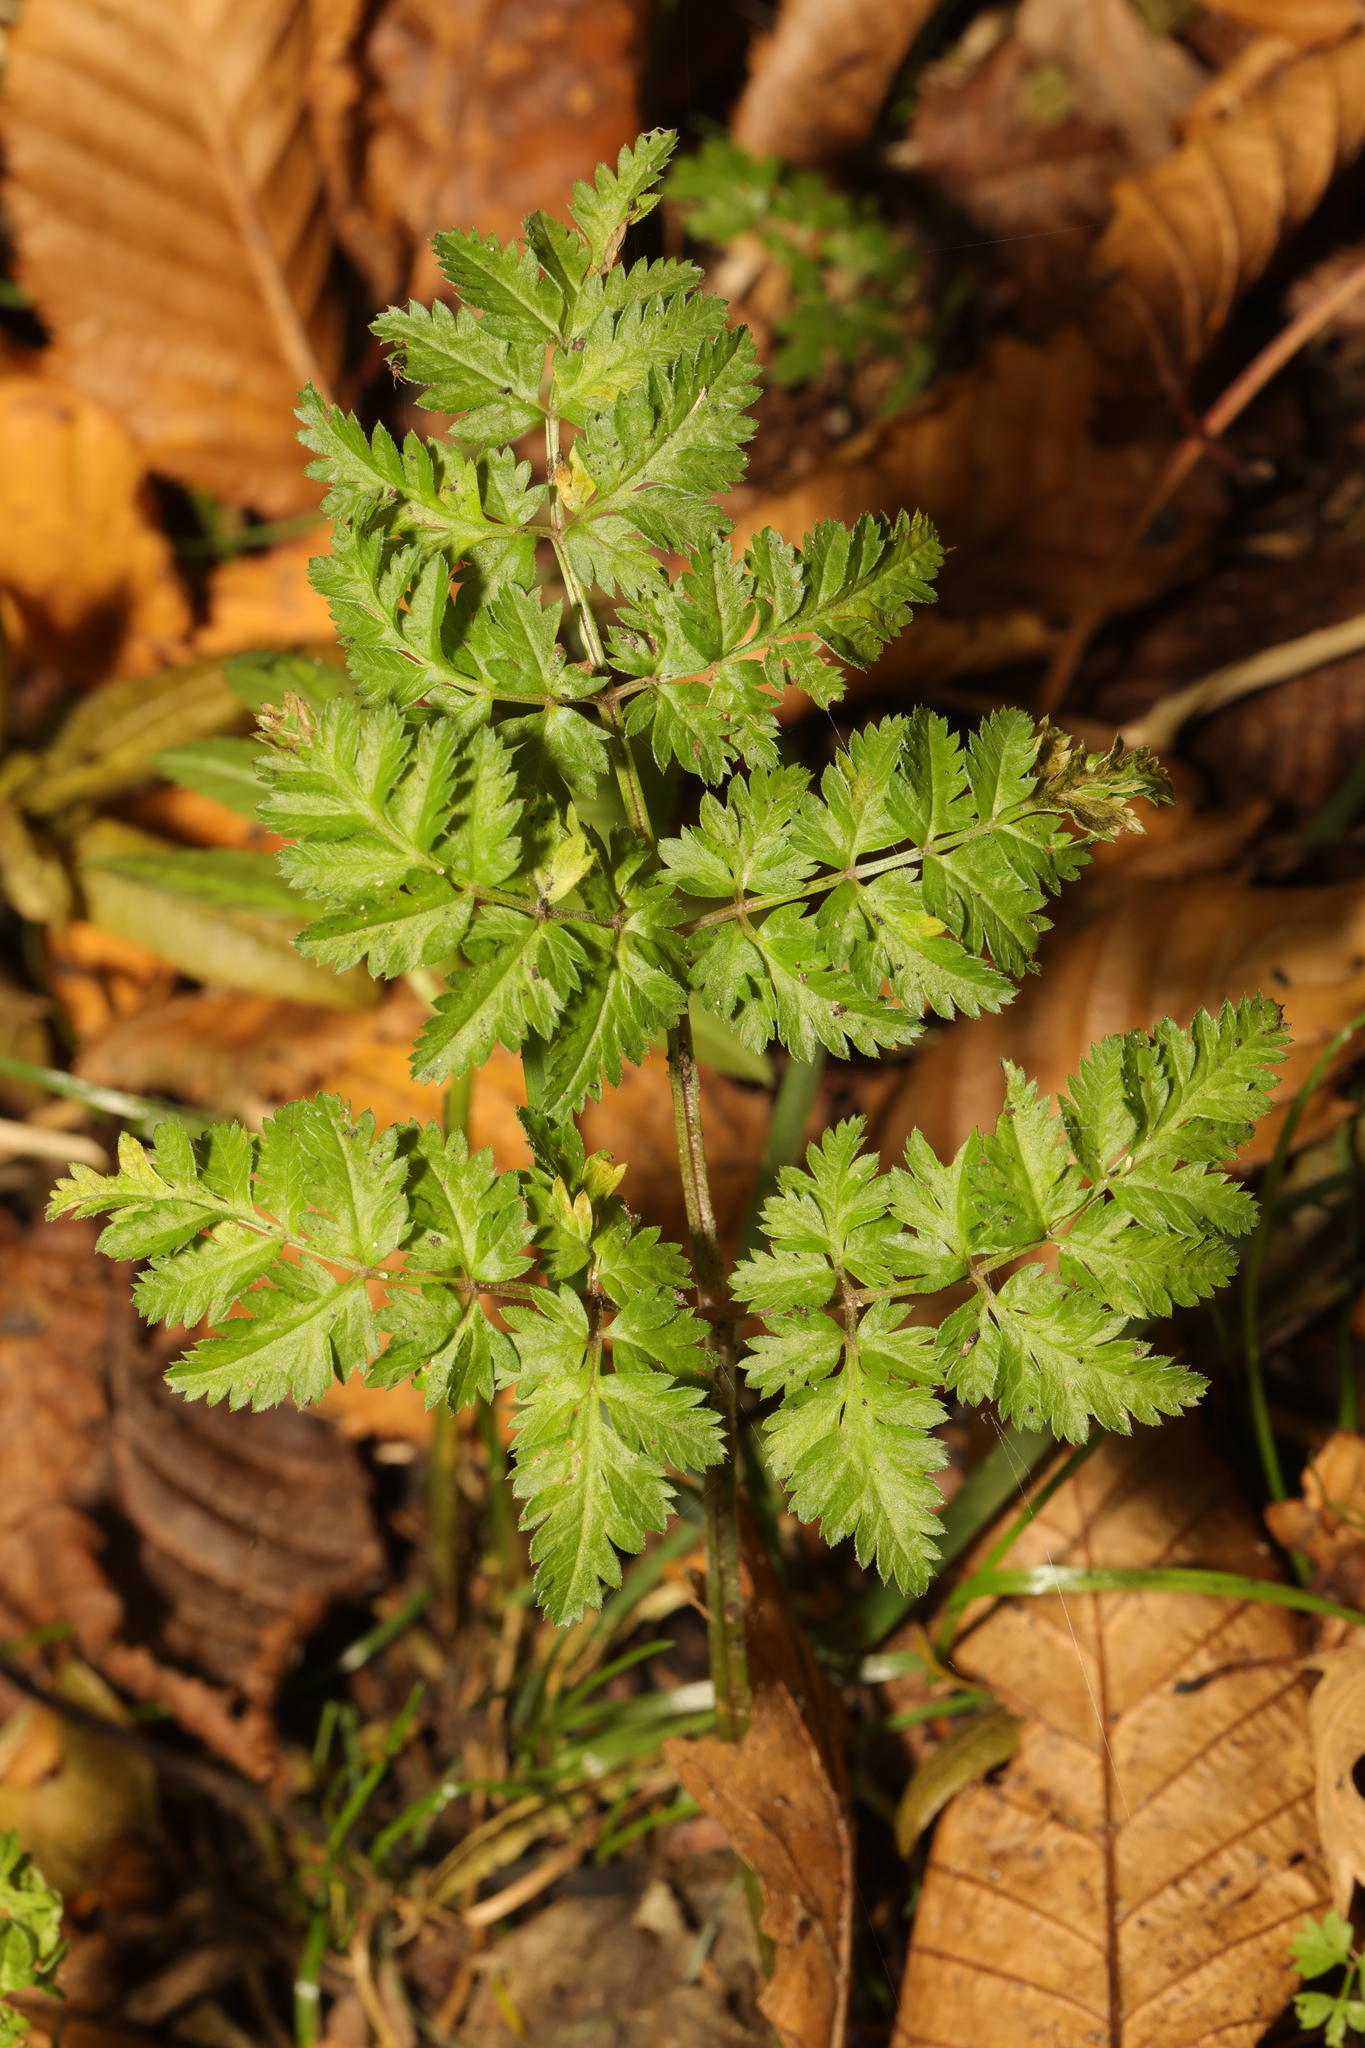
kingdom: Plantae
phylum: Tracheophyta
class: Magnoliopsida
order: Apiales
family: Apiaceae
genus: Myrrhis
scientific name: Myrrhis odorata
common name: Sweet cicely
